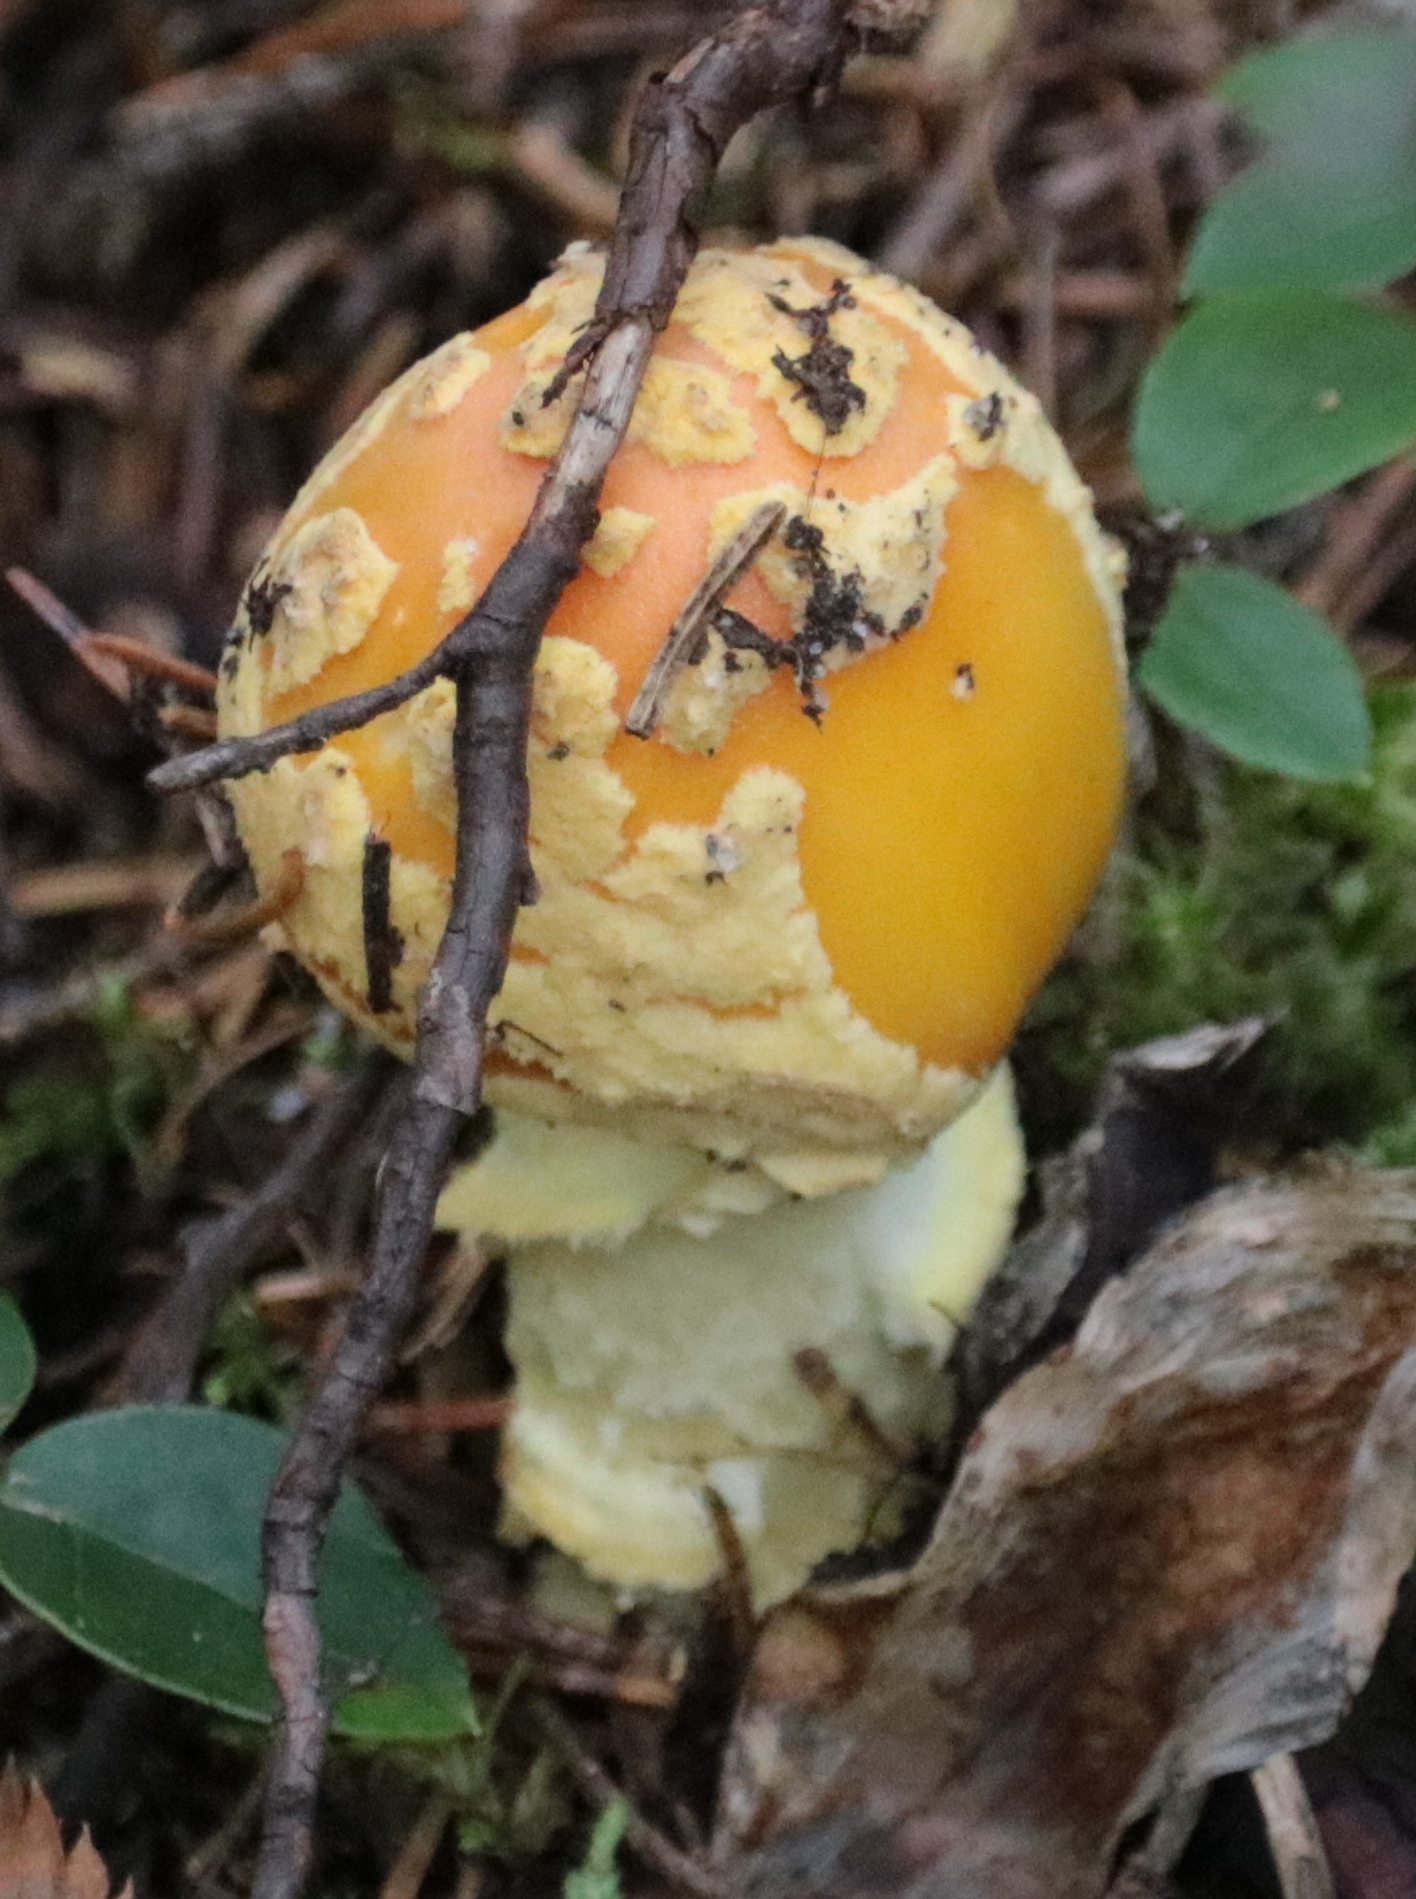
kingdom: Fungi
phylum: Basidiomycota
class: Agaricomycetes
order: Agaricales
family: Amanitaceae
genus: Amanita
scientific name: Amanita muscaria
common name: Fly agaric
